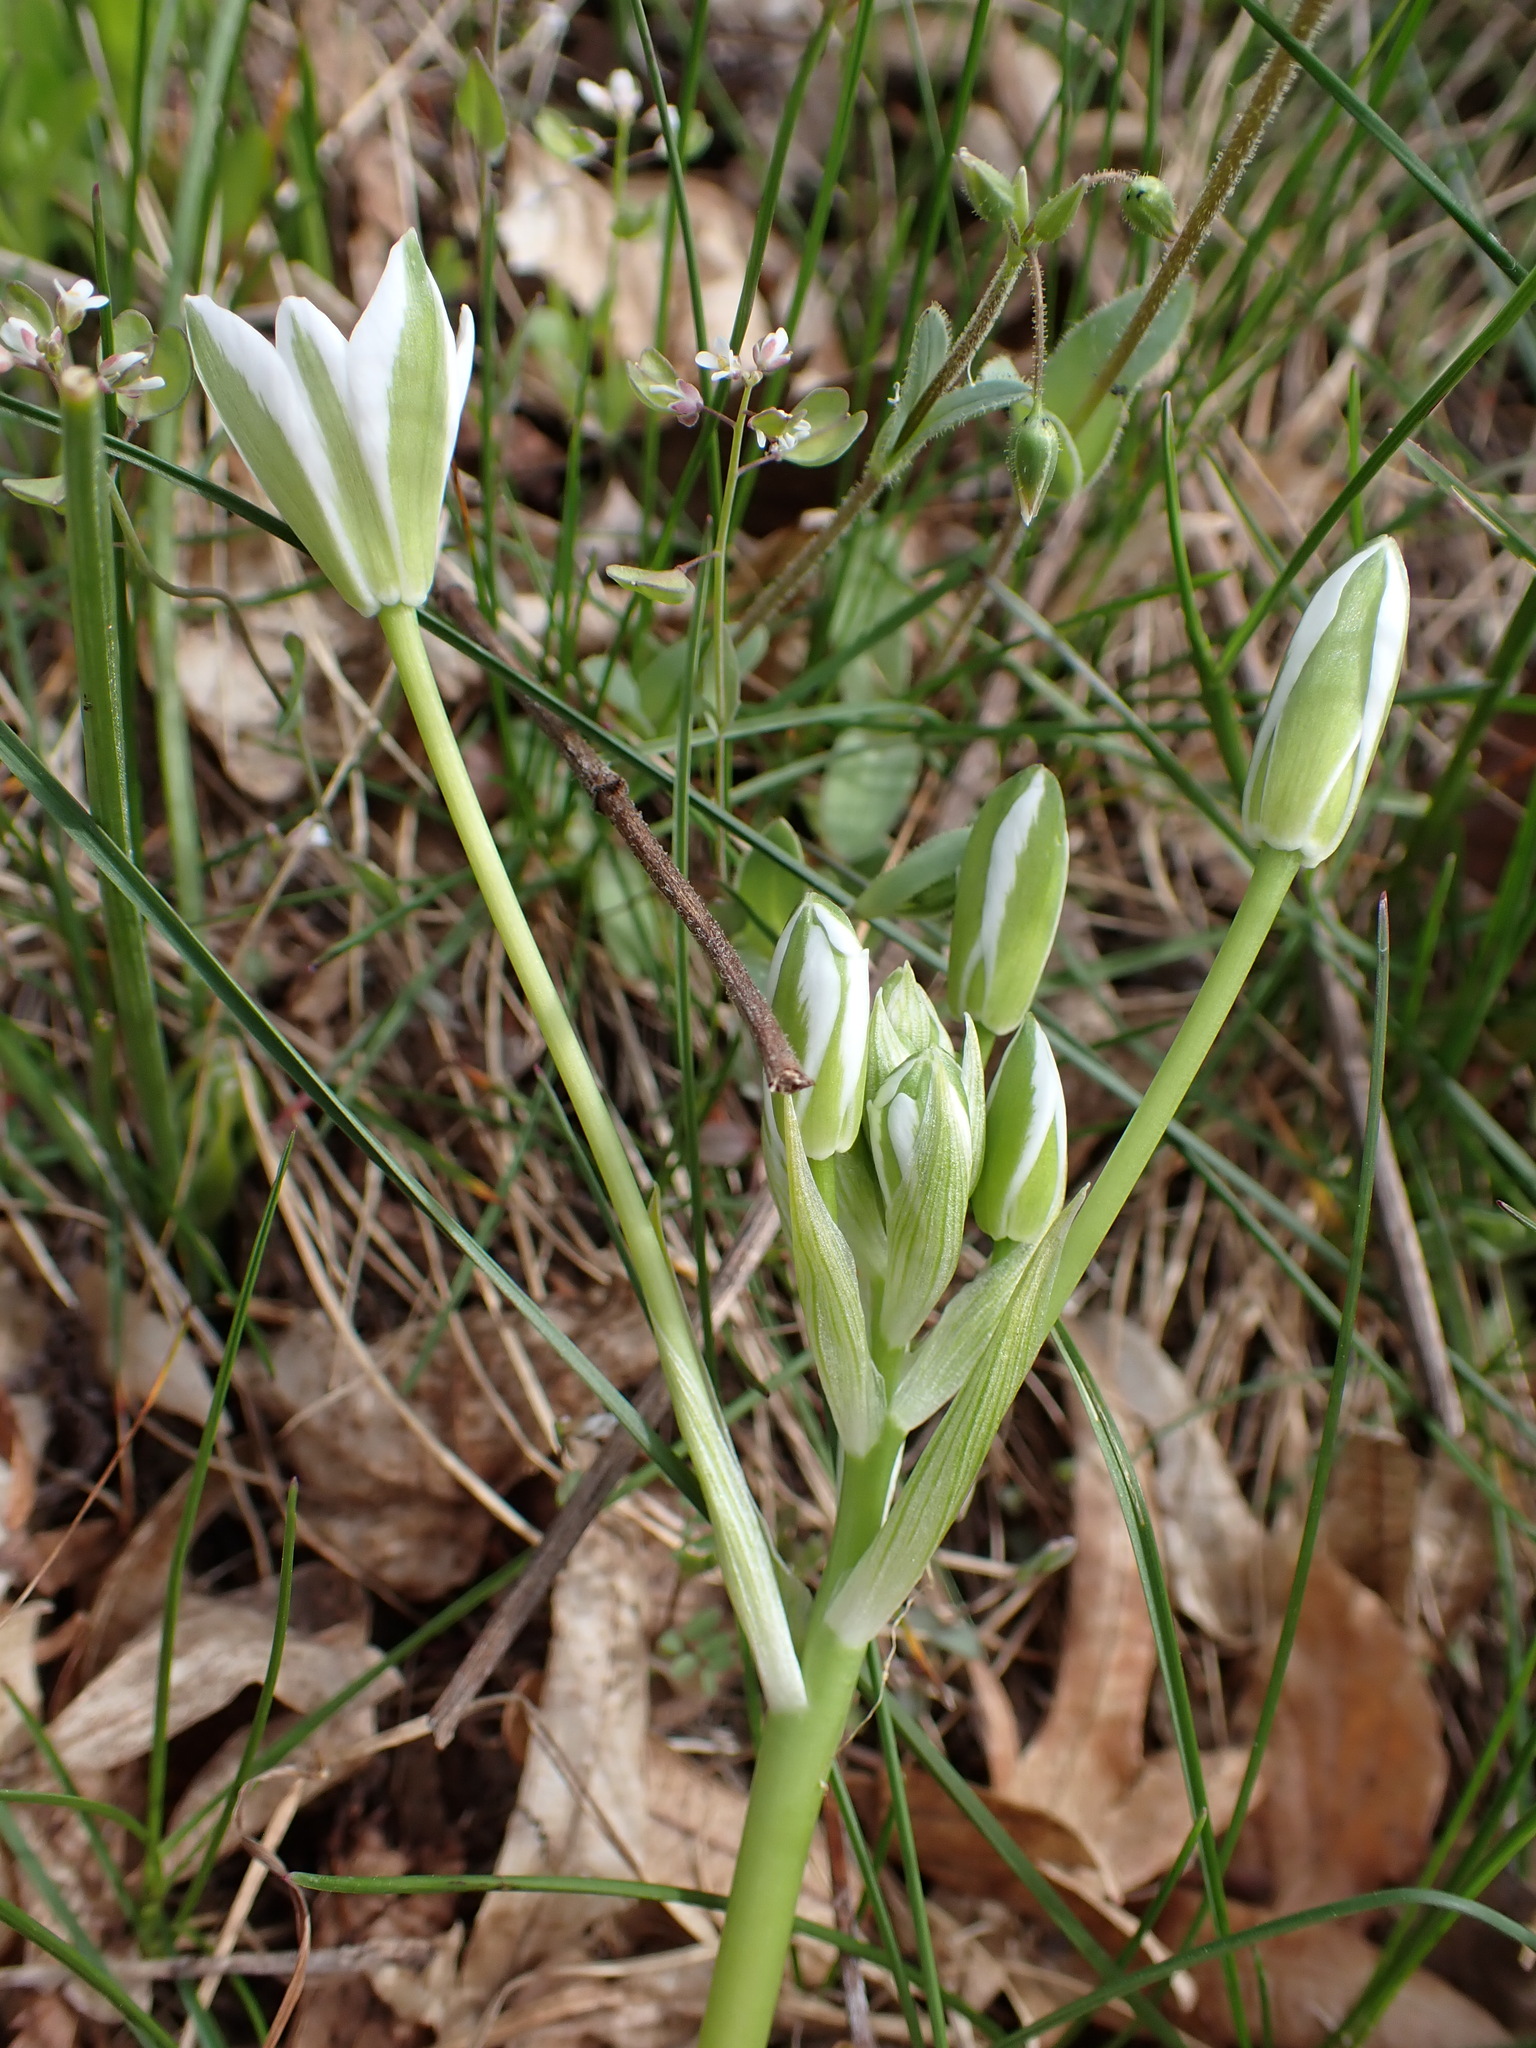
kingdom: Plantae
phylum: Tracheophyta
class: Liliopsida
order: Asparagales
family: Asparagaceae
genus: Ornithogalum
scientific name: Ornithogalum orthophyllum
